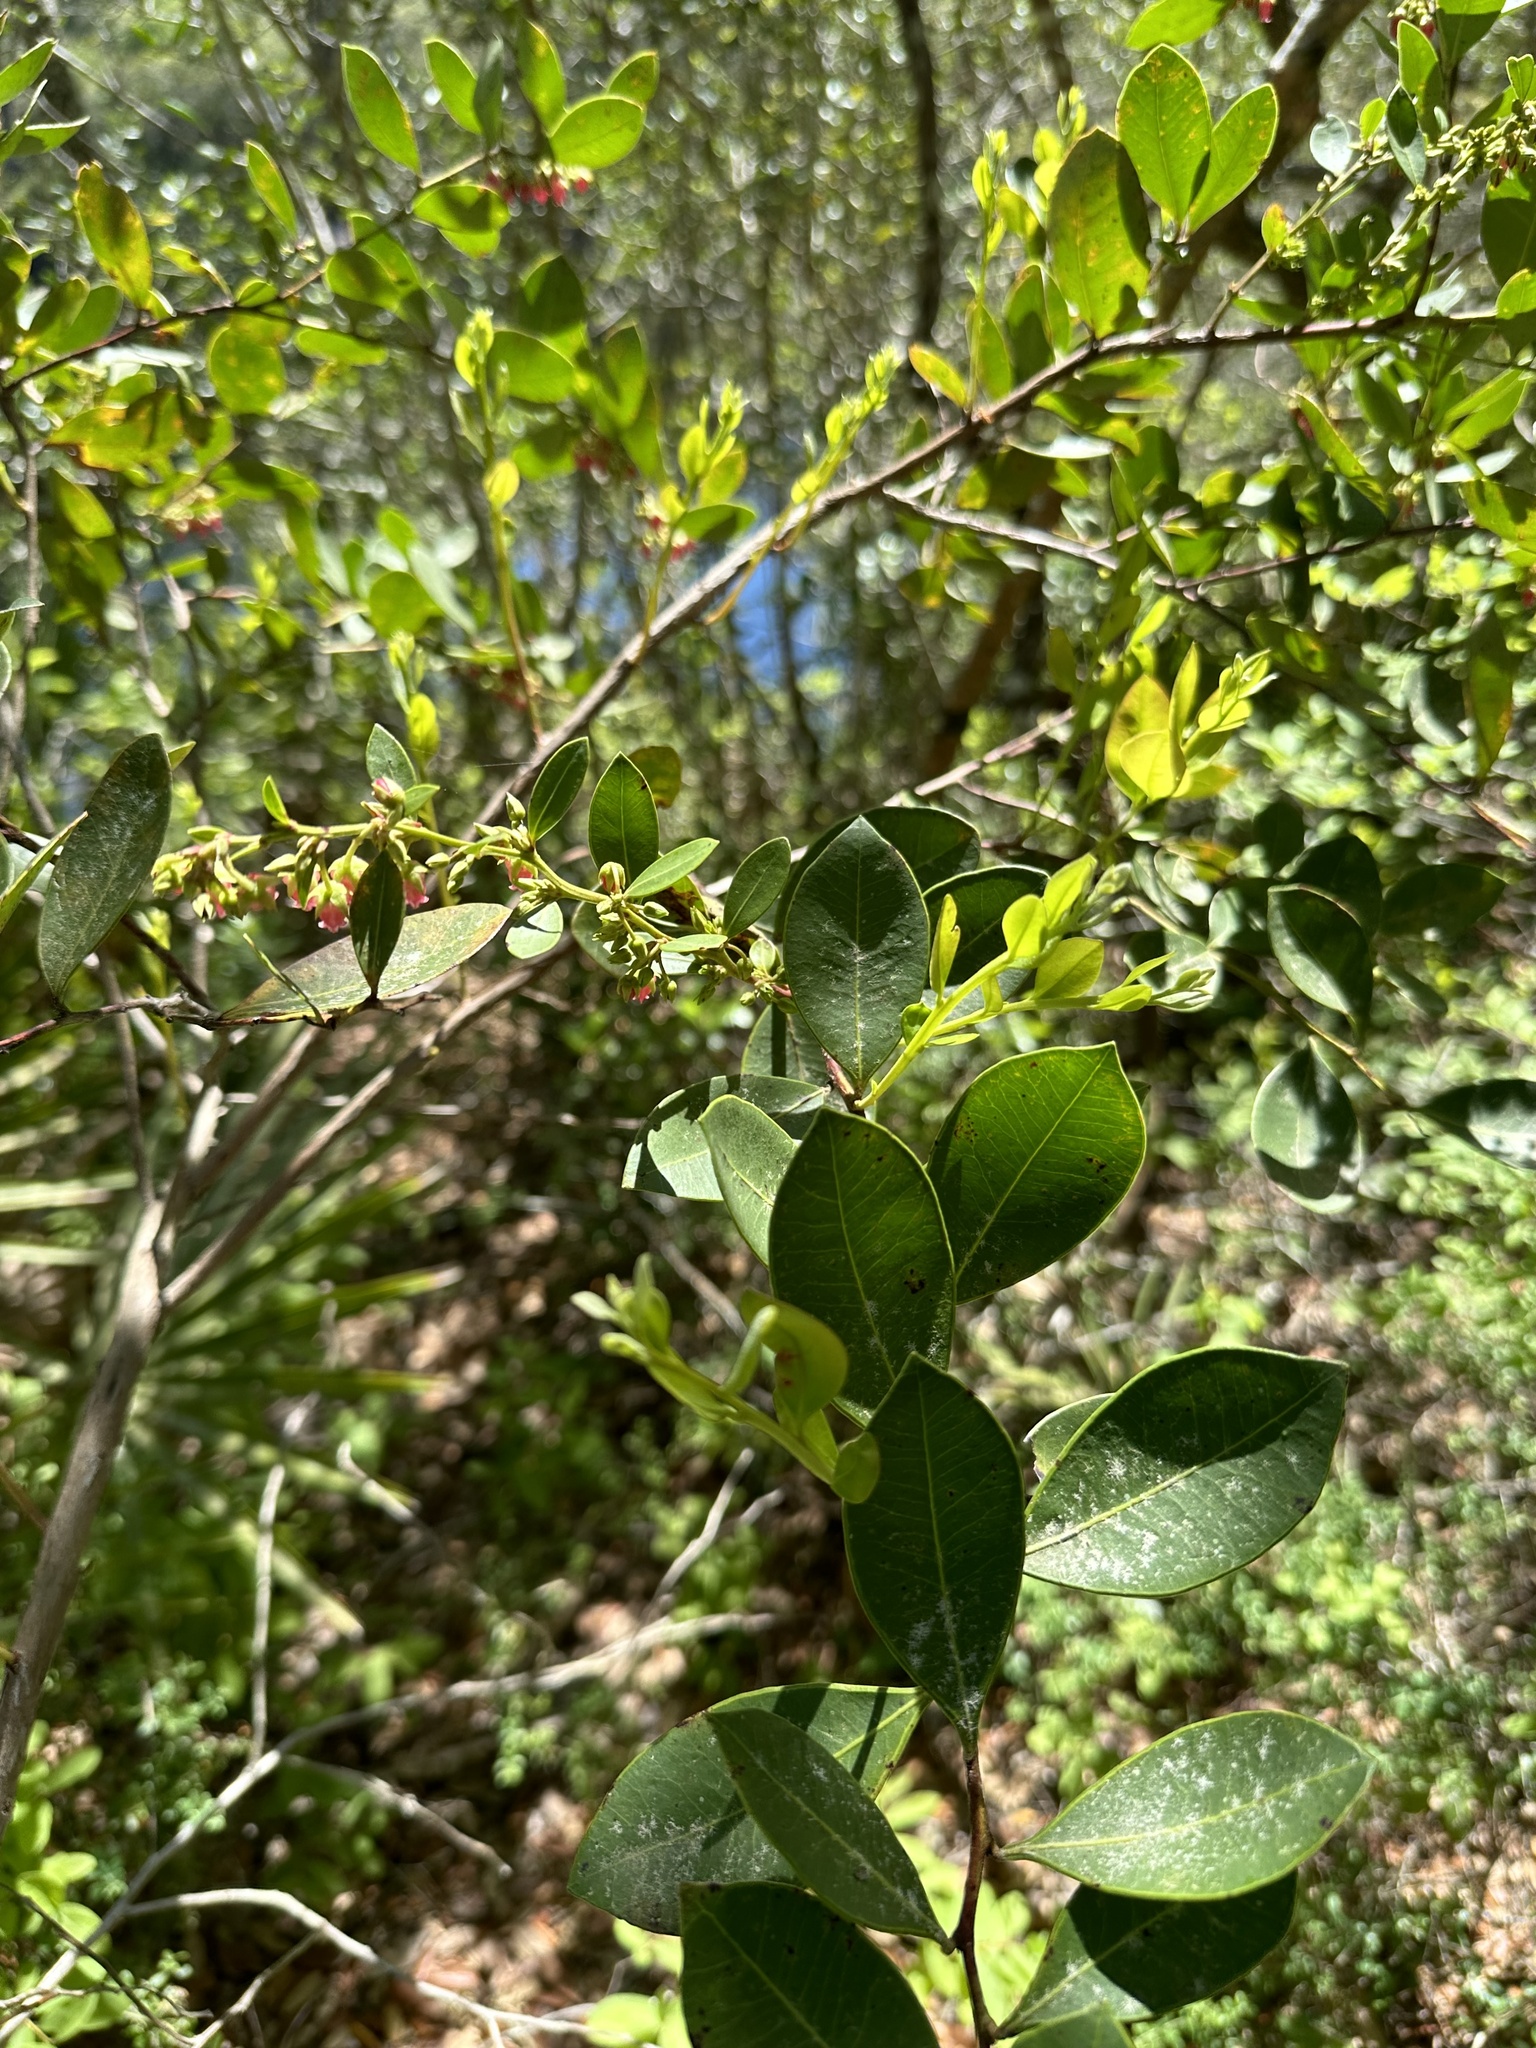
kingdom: Plantae
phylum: Tracheophyta
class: Magnoliopsida
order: Ericales
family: Ericaceae
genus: Lyonia
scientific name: Lyonia lucida
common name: Fetterbush
